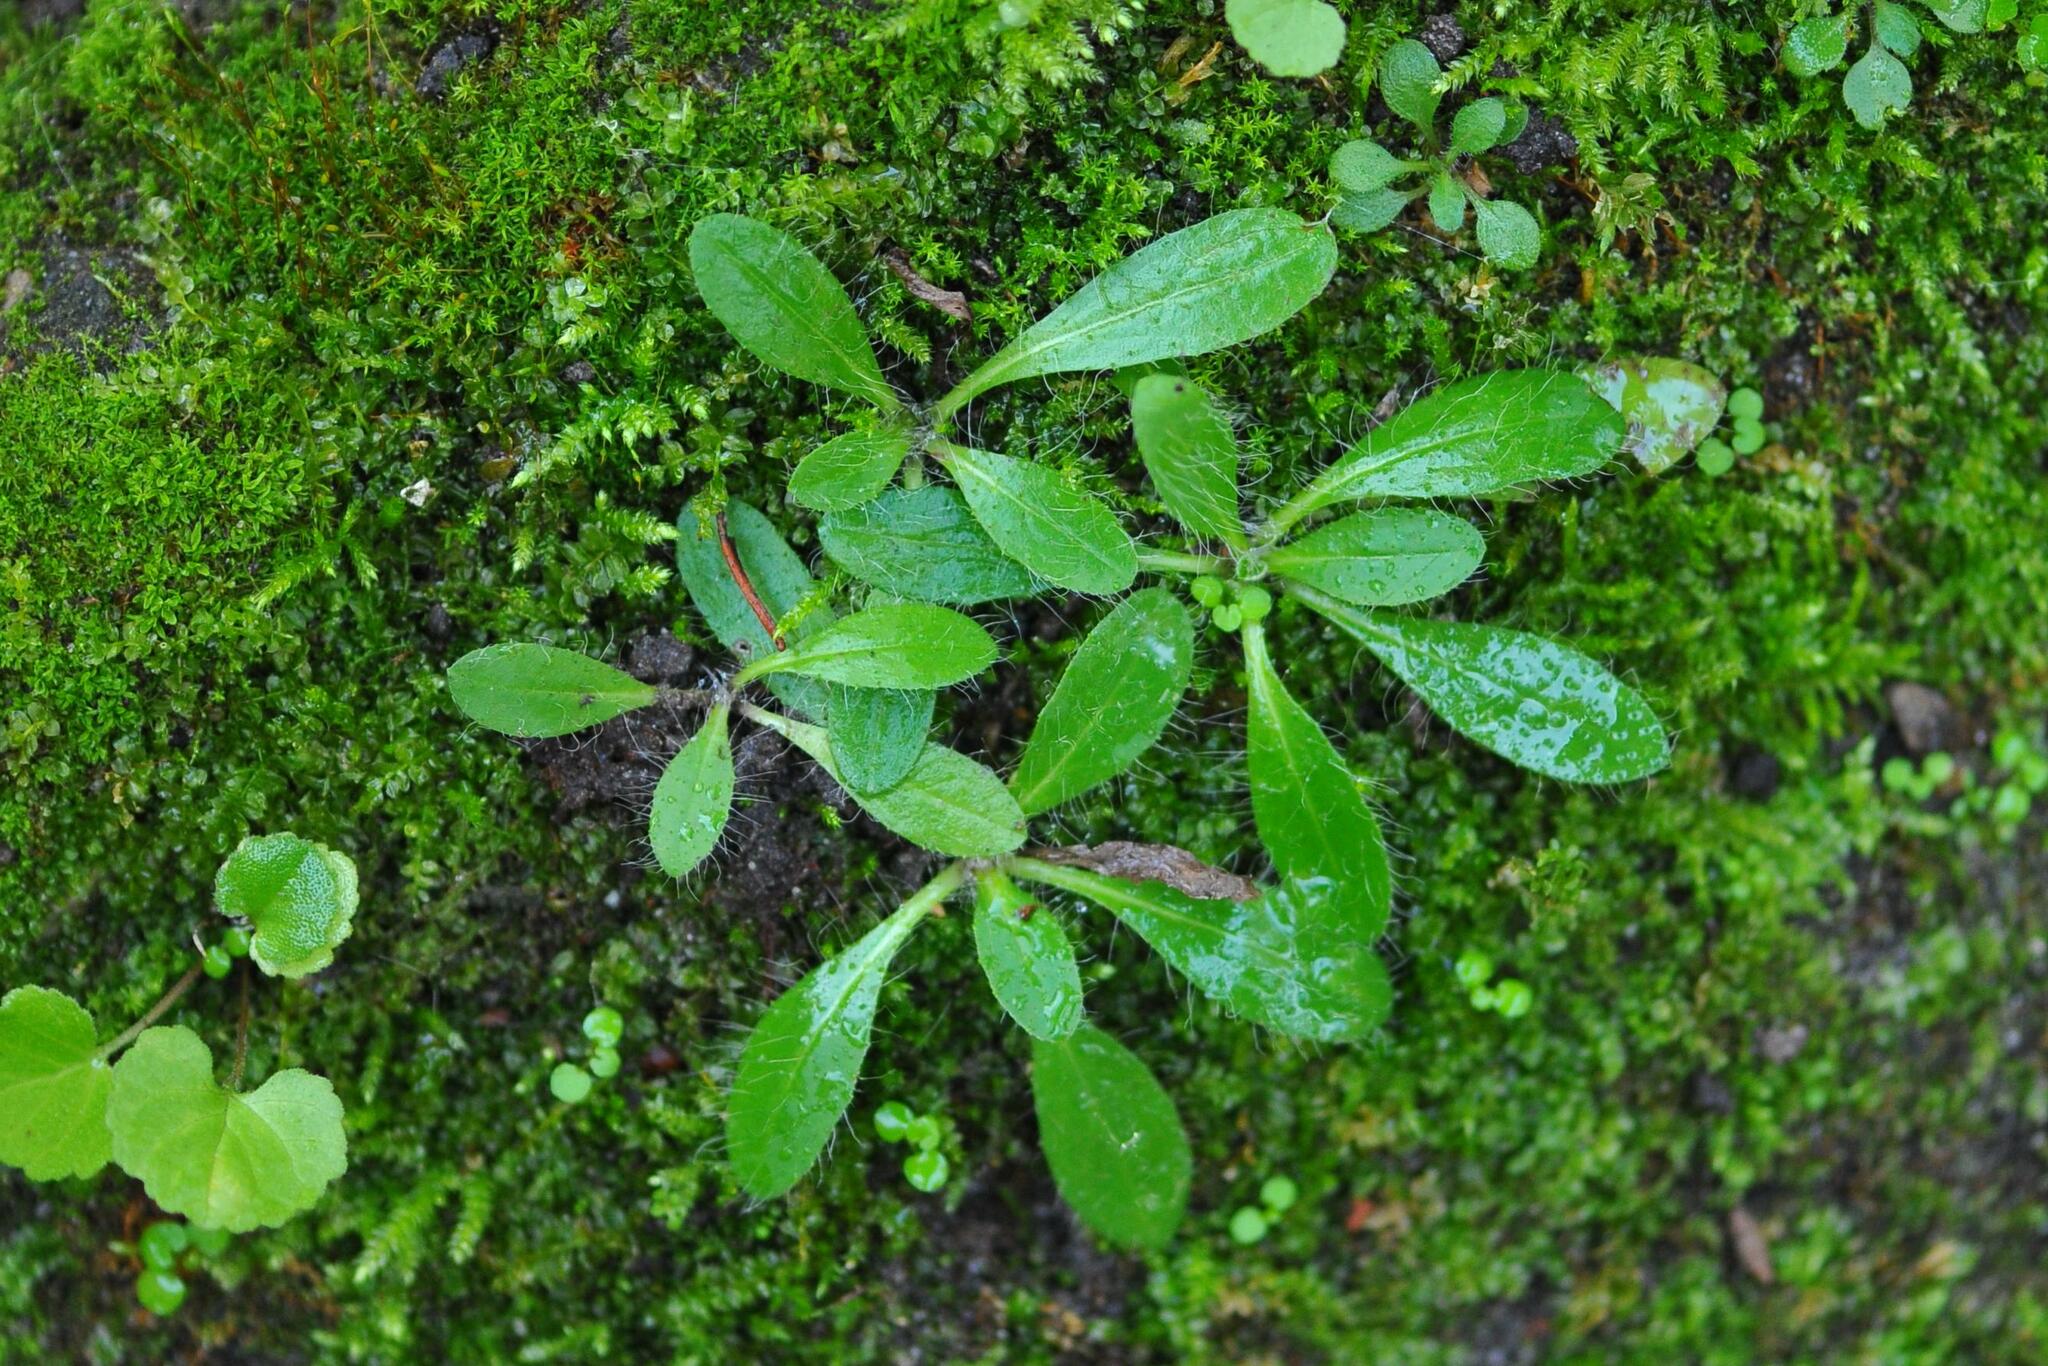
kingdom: Plantae
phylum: Tracheophyta
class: Magnoliopsida
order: Asterales
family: Asteraceae
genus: Pilosella
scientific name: Pilosella officinarum
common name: Mouse-ear hawkweed
